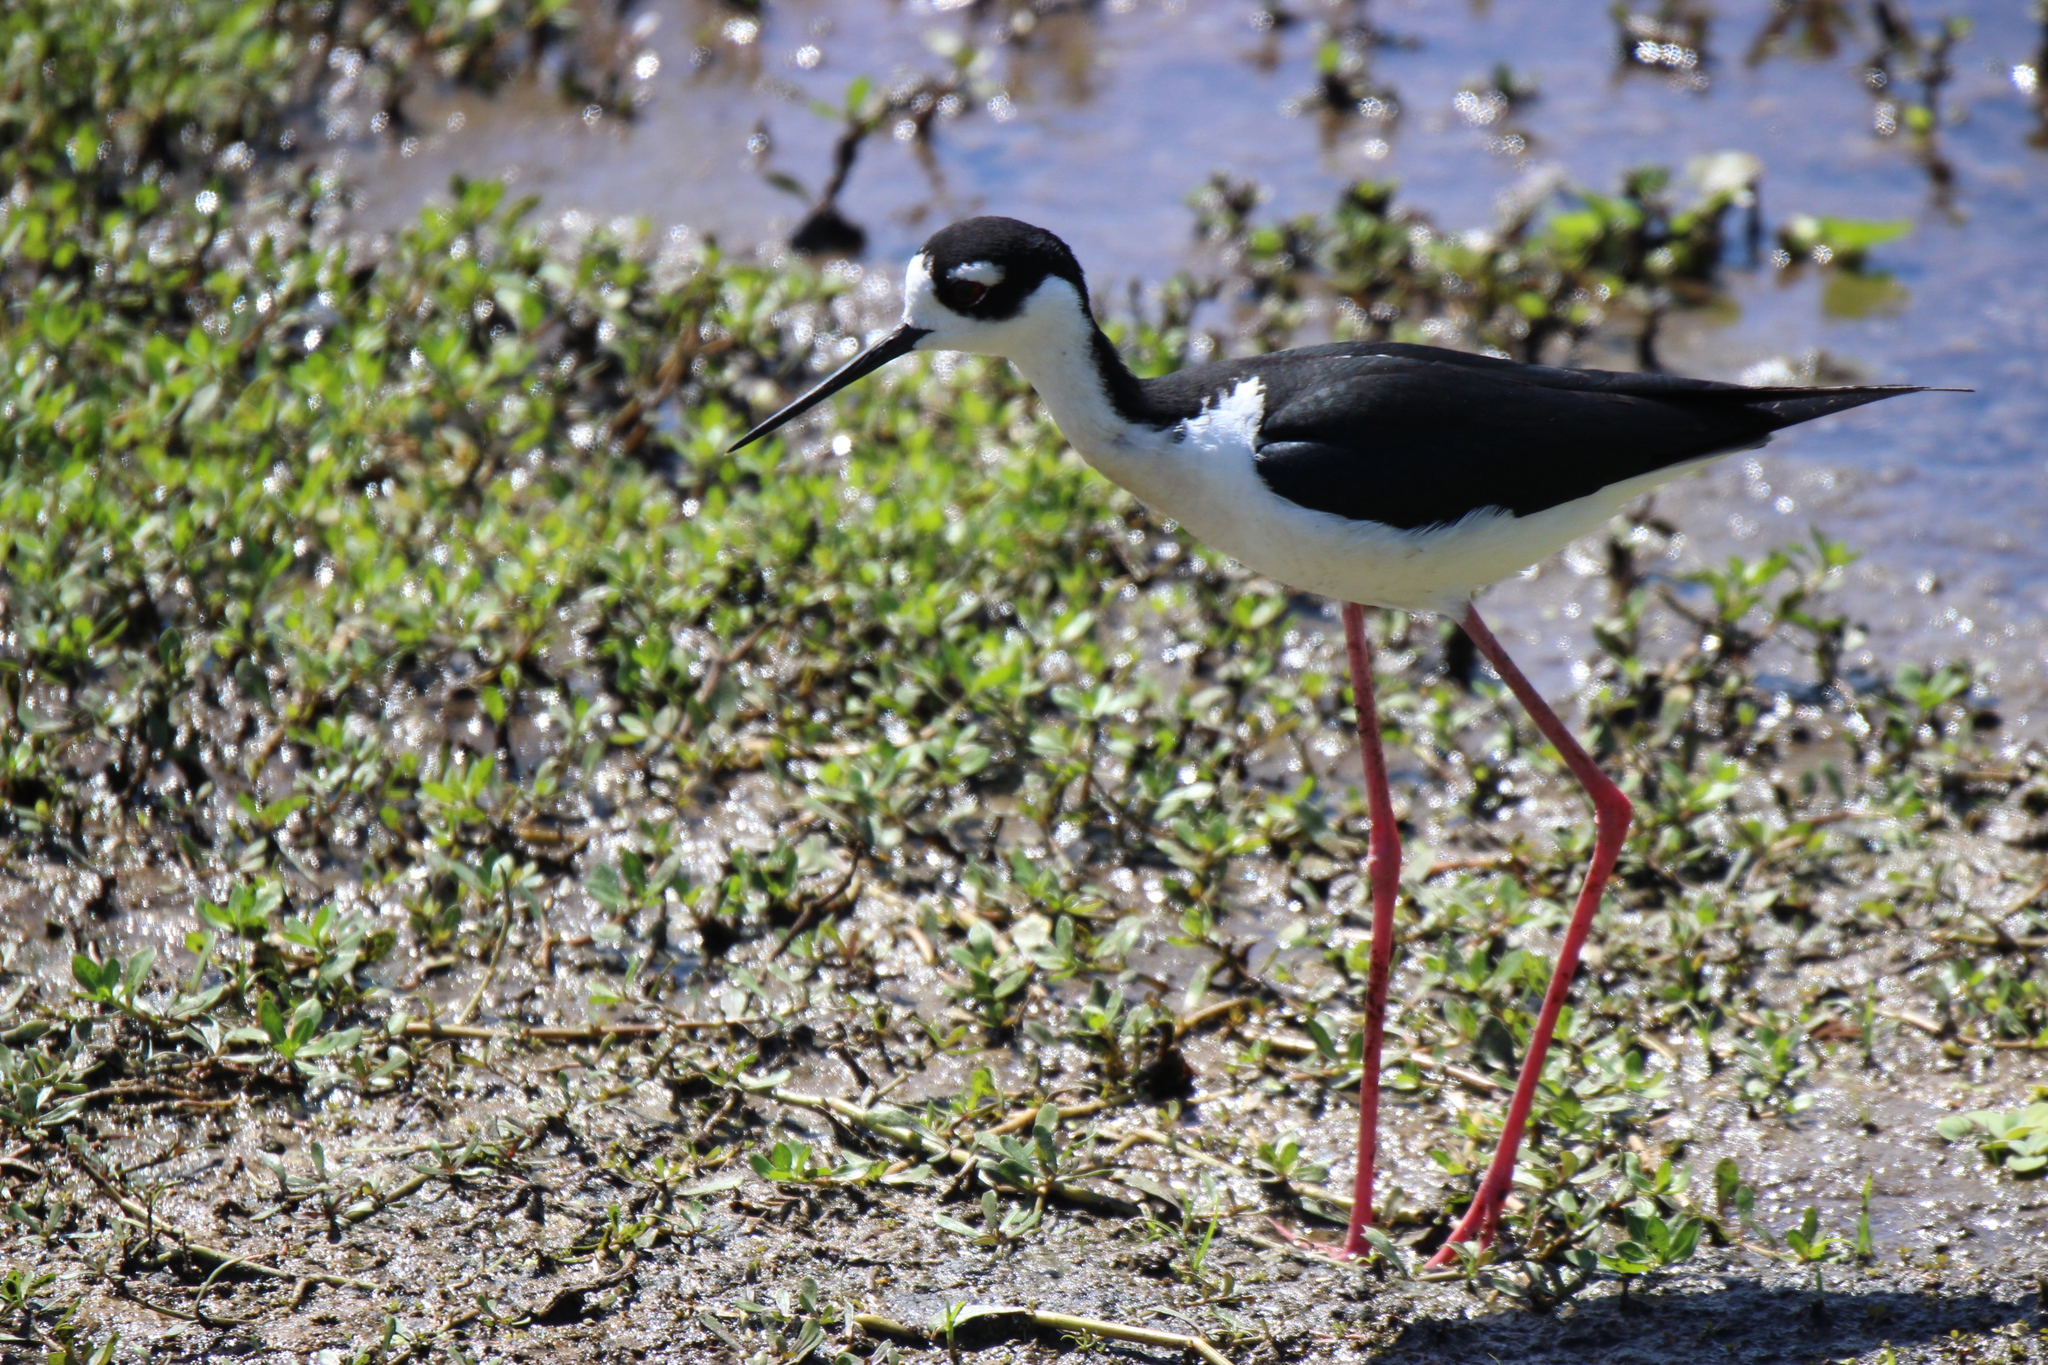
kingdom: Animalia
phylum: Chordata
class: Aves
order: Charadriiformes
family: Recurvirostridae
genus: Himantopus
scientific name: Himantopus mexicanus
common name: Black-necked stilt
